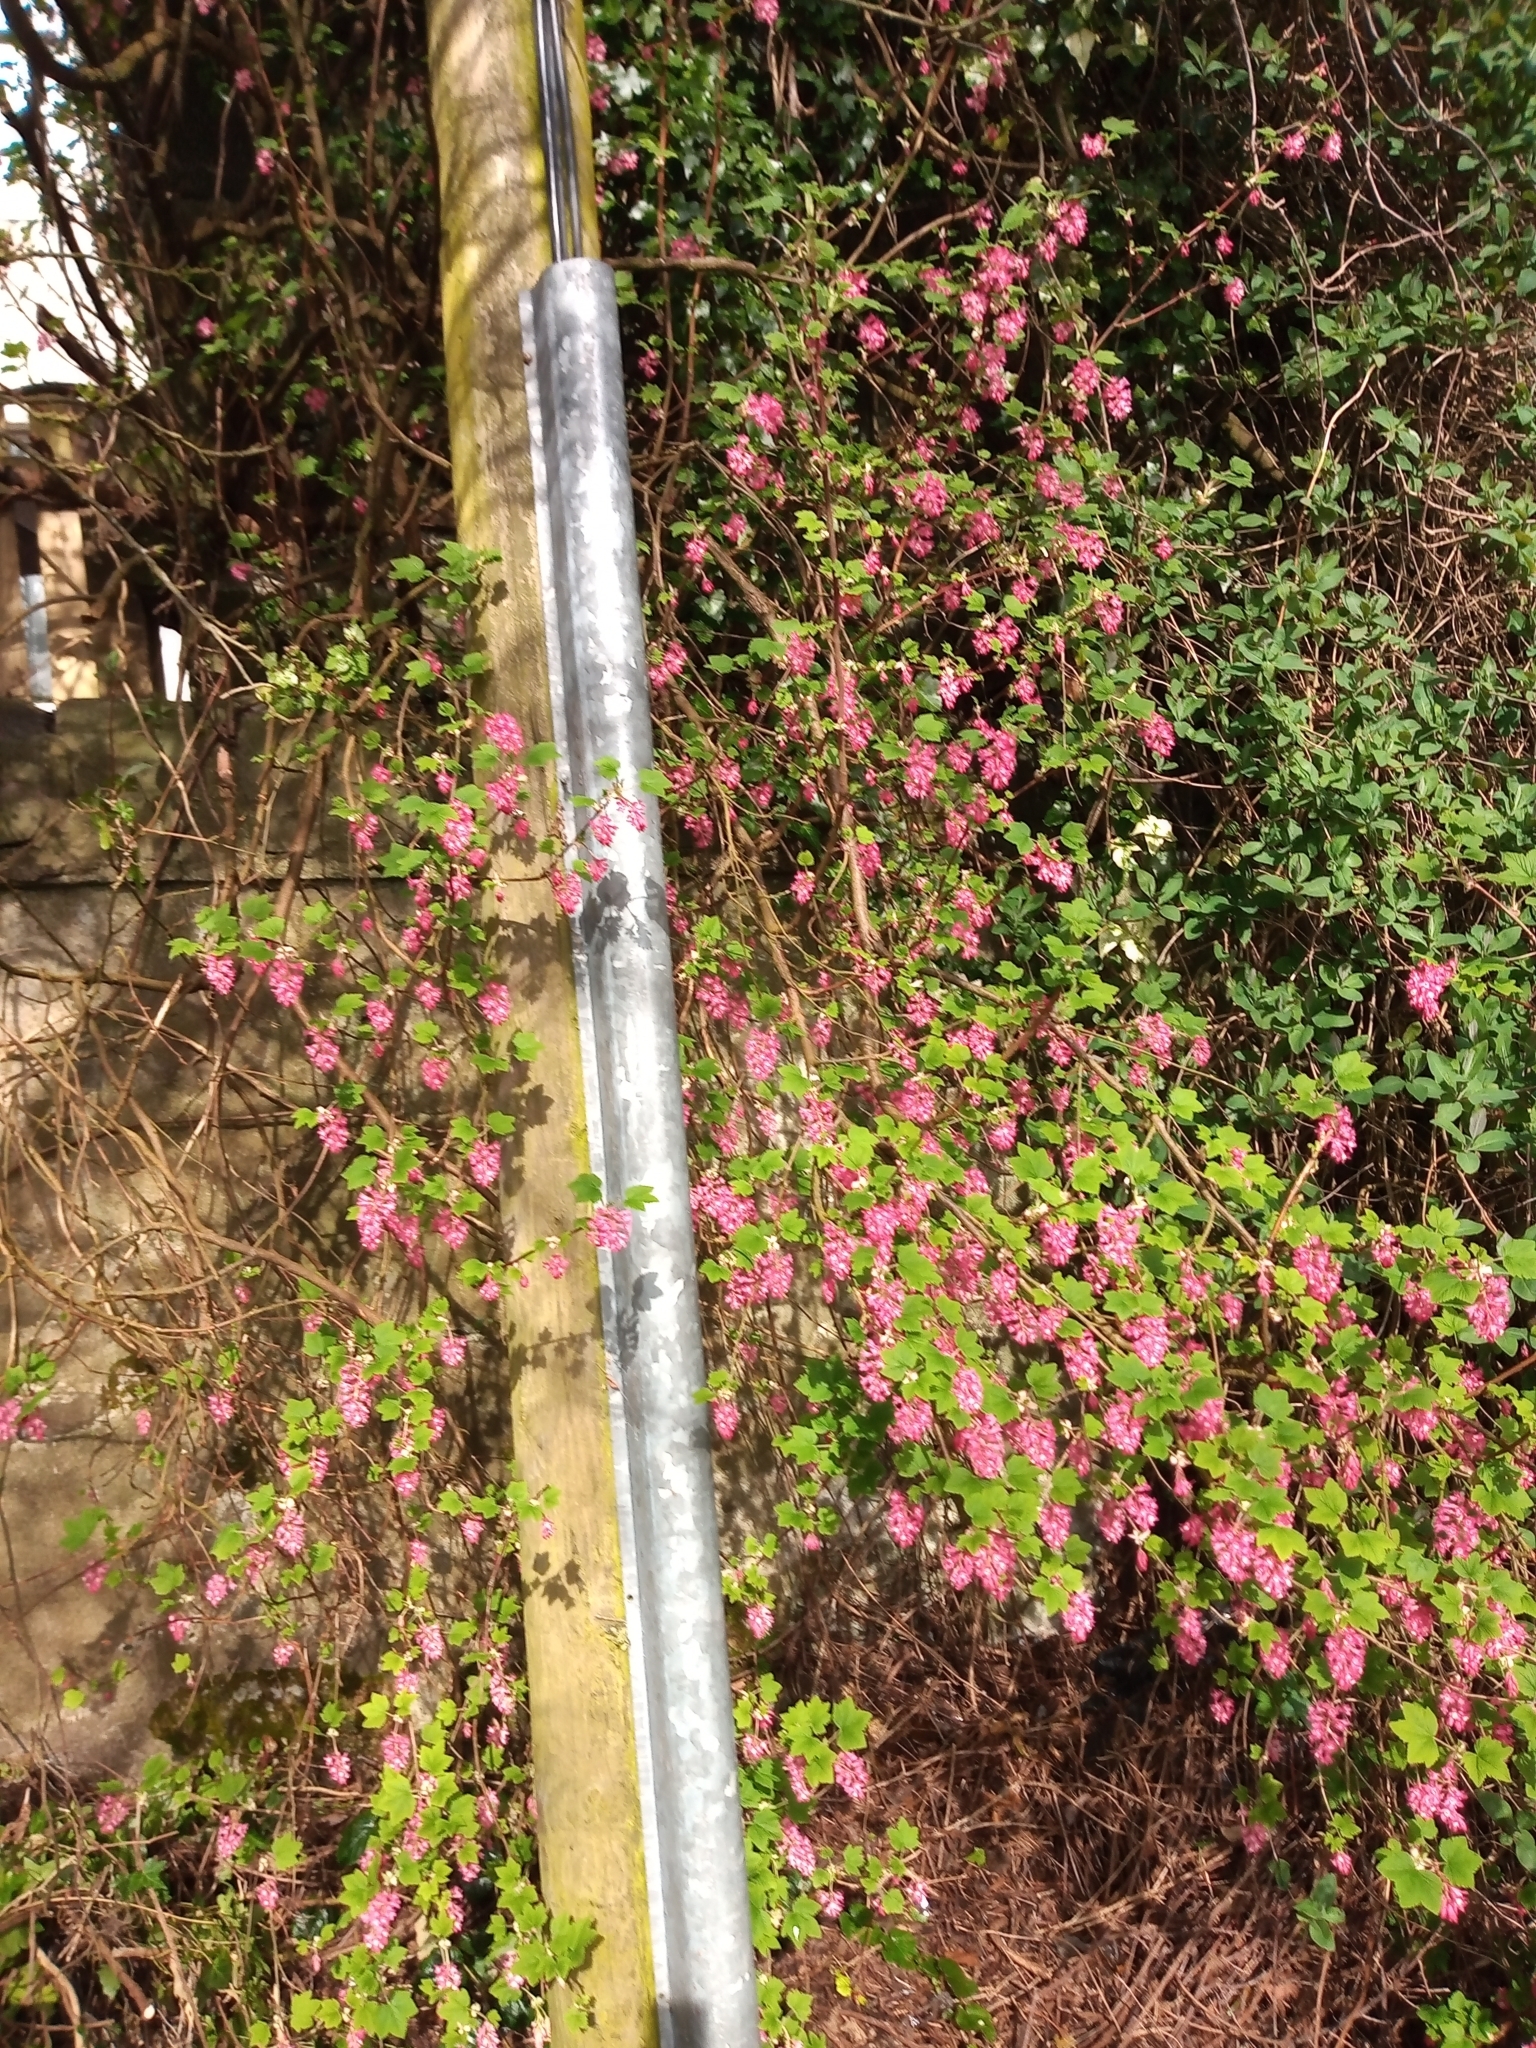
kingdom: Plantae
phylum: Tracheophyta
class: Magnoliopsida
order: Saxifragales
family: Grossulariaceae
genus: Ribes
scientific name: Ribes sanguineum
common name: Flowering currant
